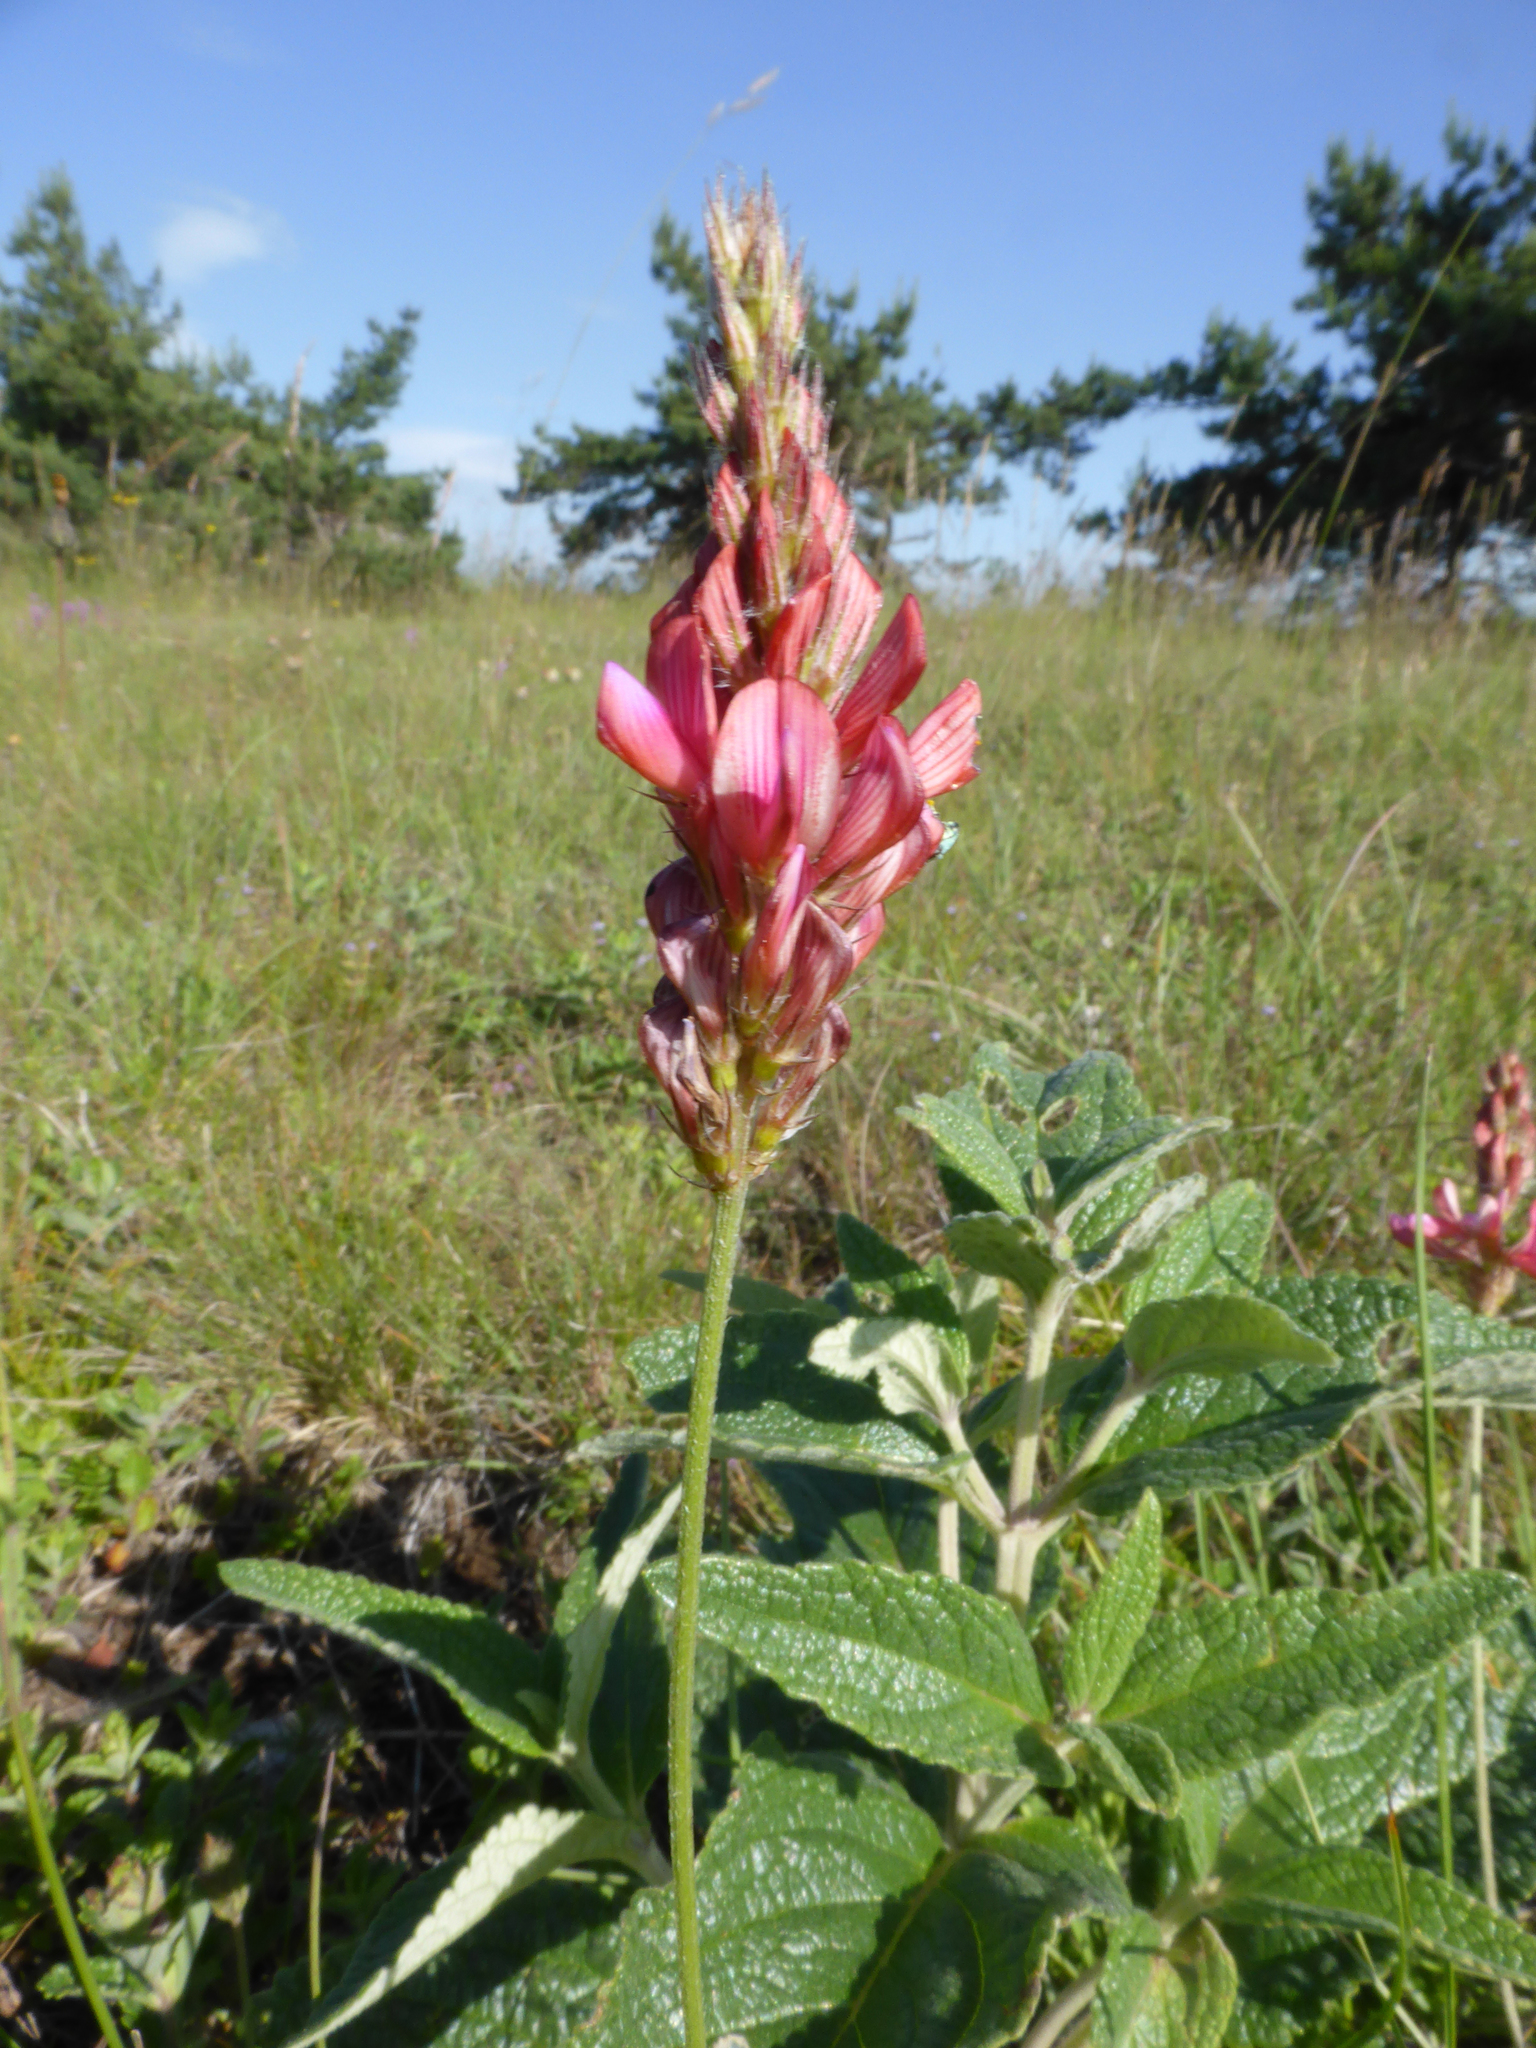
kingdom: Plantae
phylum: Tracheophyta
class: Magnoliopsida
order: Fabales
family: Fabaceae
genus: Onobrychis
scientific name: Onobrychis jailae
